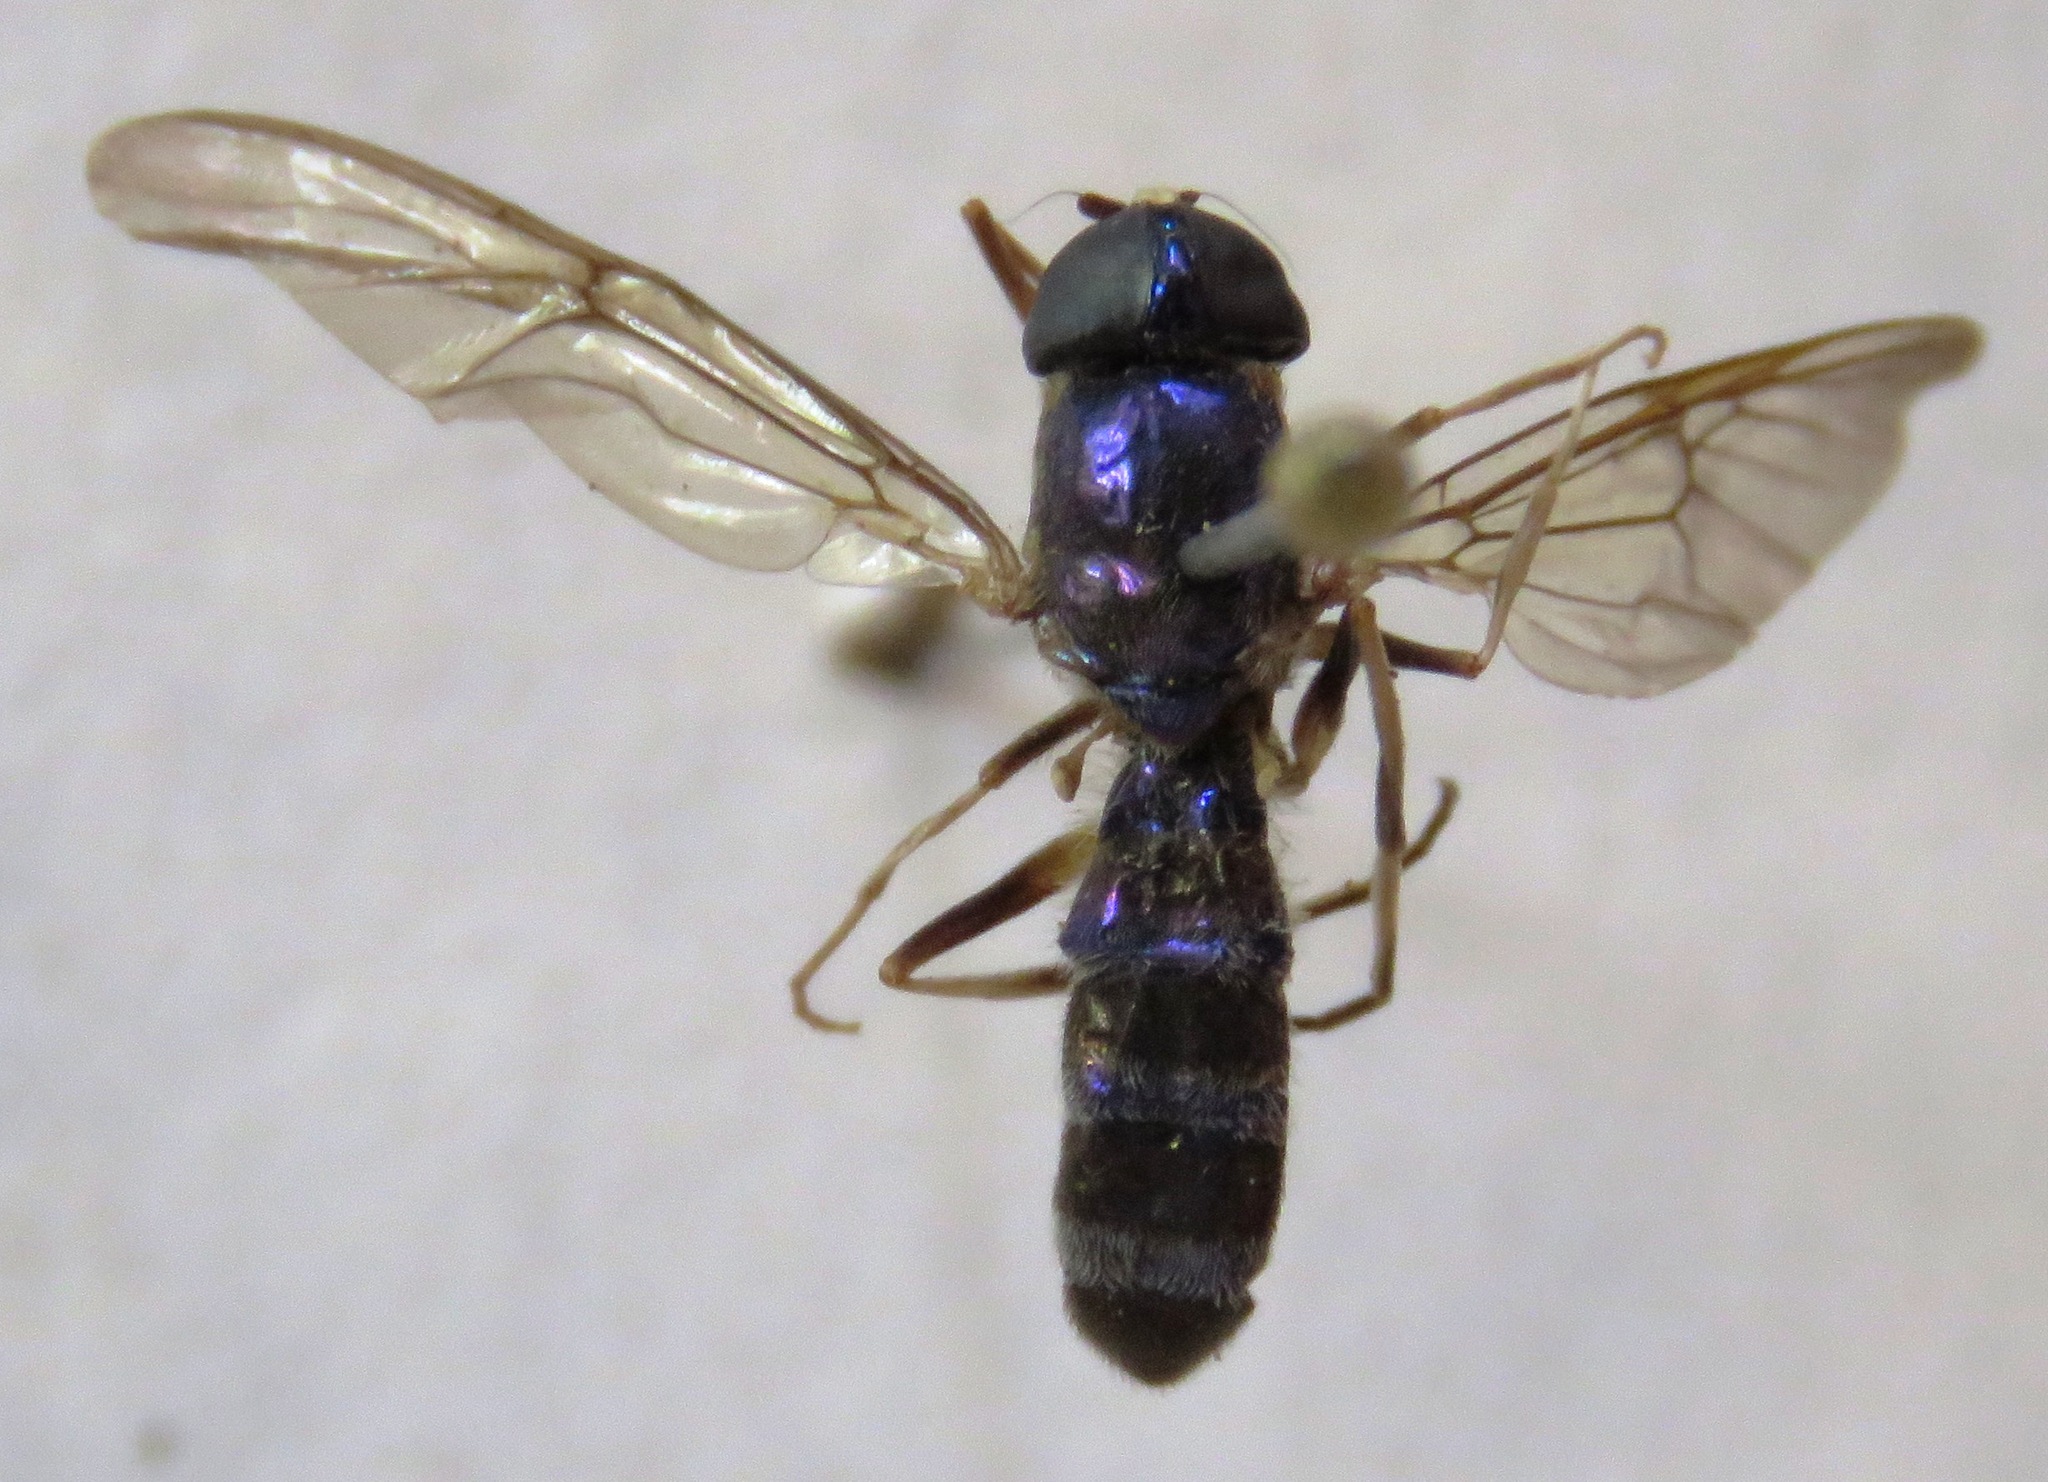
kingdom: Animalia
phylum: Arthropoda
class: Insecta
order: Diptera
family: Stratiomyidae
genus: Sargus
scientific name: Sargus speciosus
